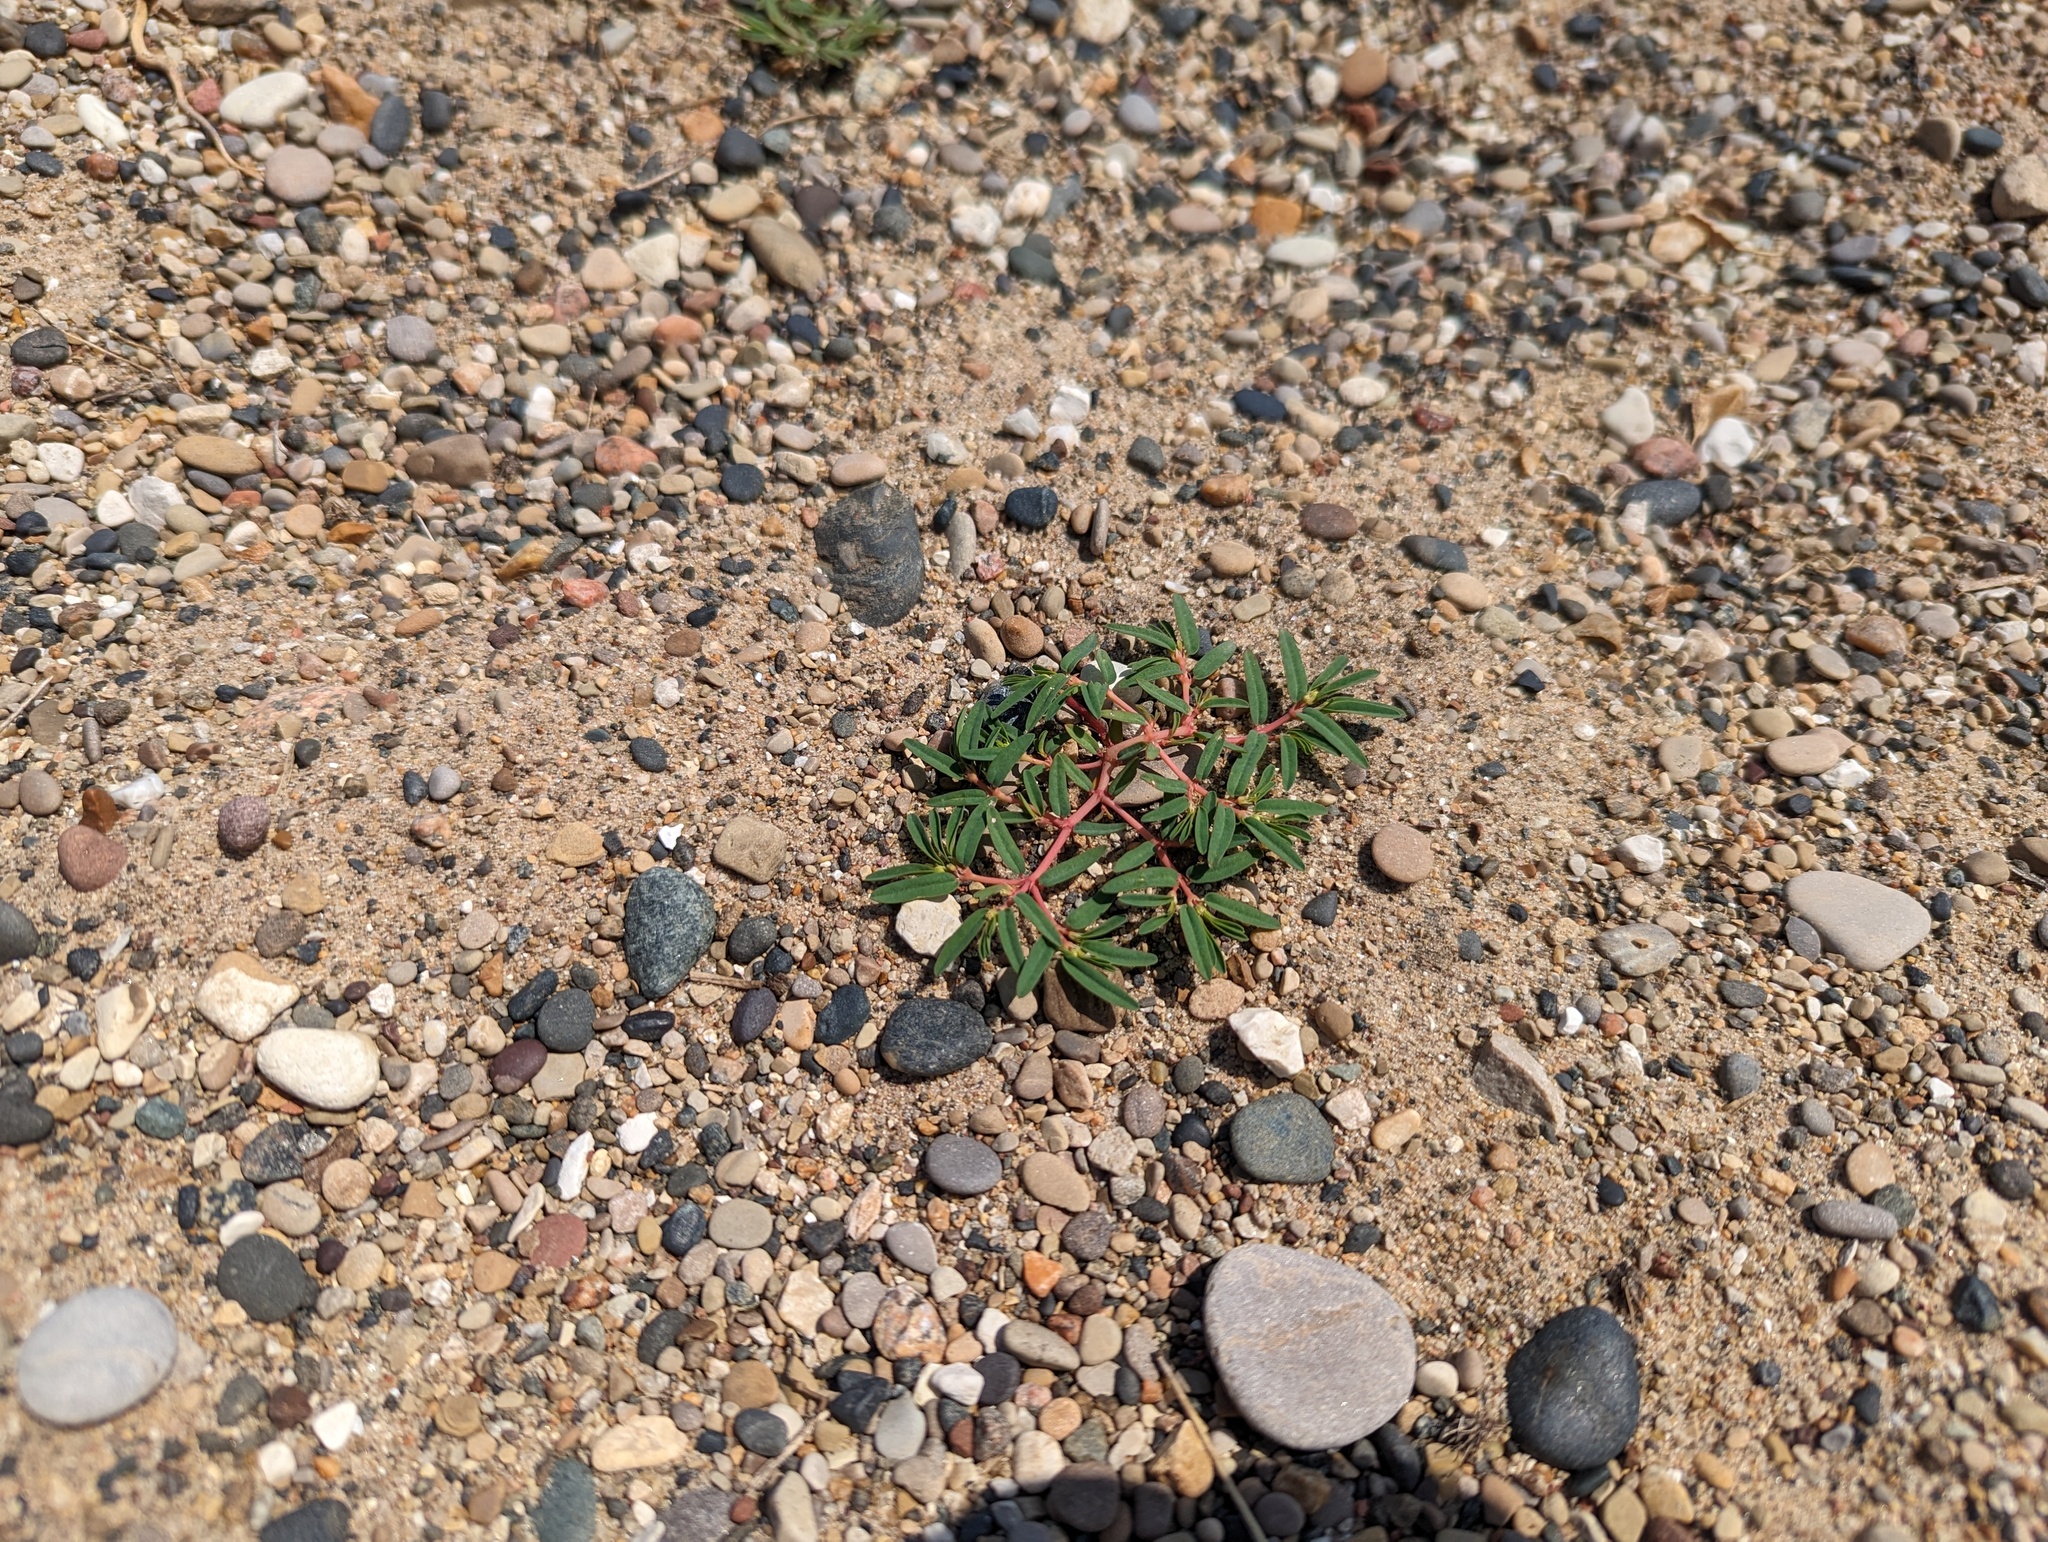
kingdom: Plantae
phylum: Tracheophyta
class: Magnoliopsida
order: Malpighiales
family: Euphorbiaceae
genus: Euphorbia
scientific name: Euphorbia polygonifolia
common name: Knotweed spurge
